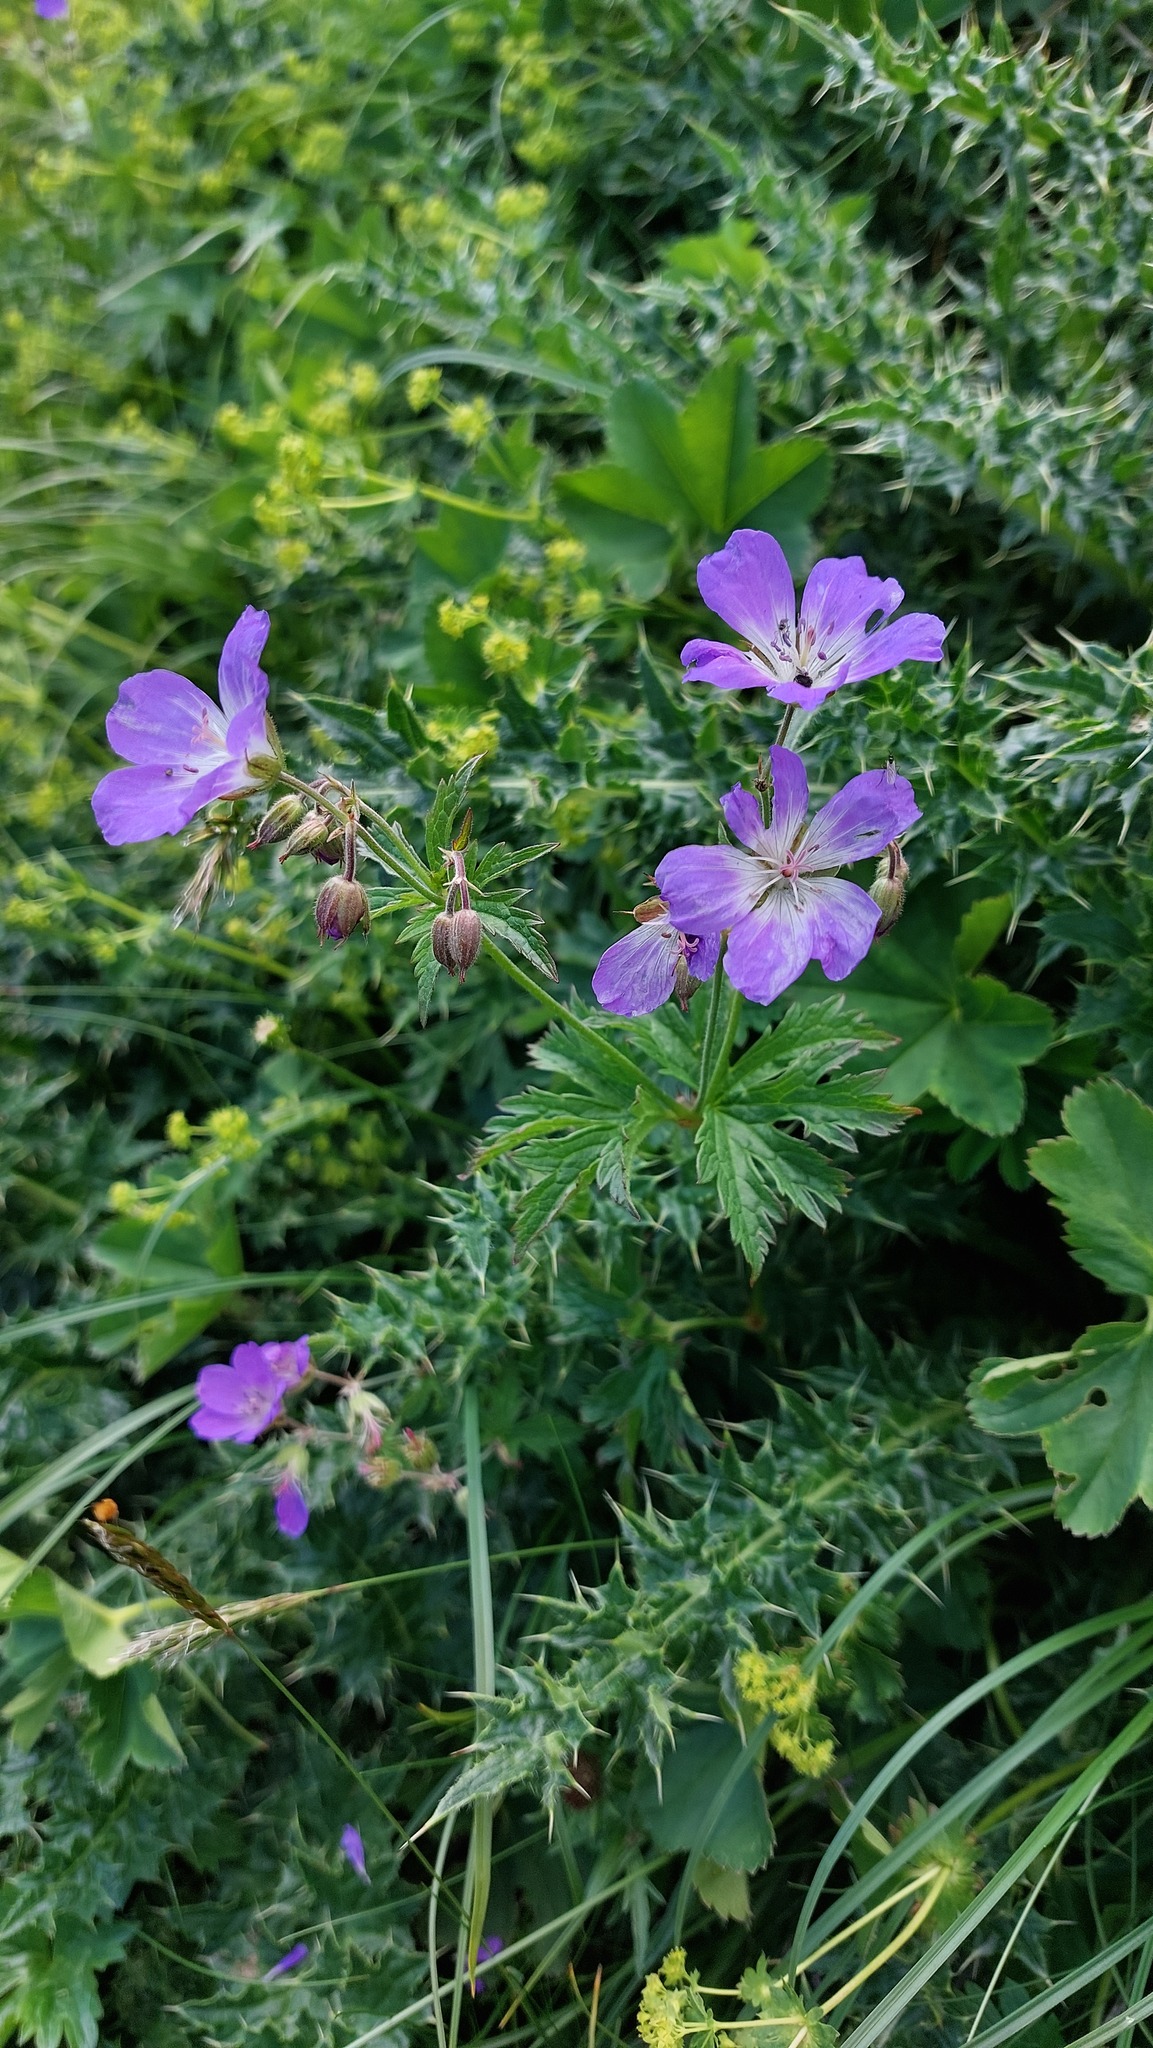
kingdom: Plantae
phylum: Tracheophyta
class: Magnoliopsida
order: Geraniales
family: Geraniaceae
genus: Geranium
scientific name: Geranium sylvaticum
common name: Wood crane's-bill
